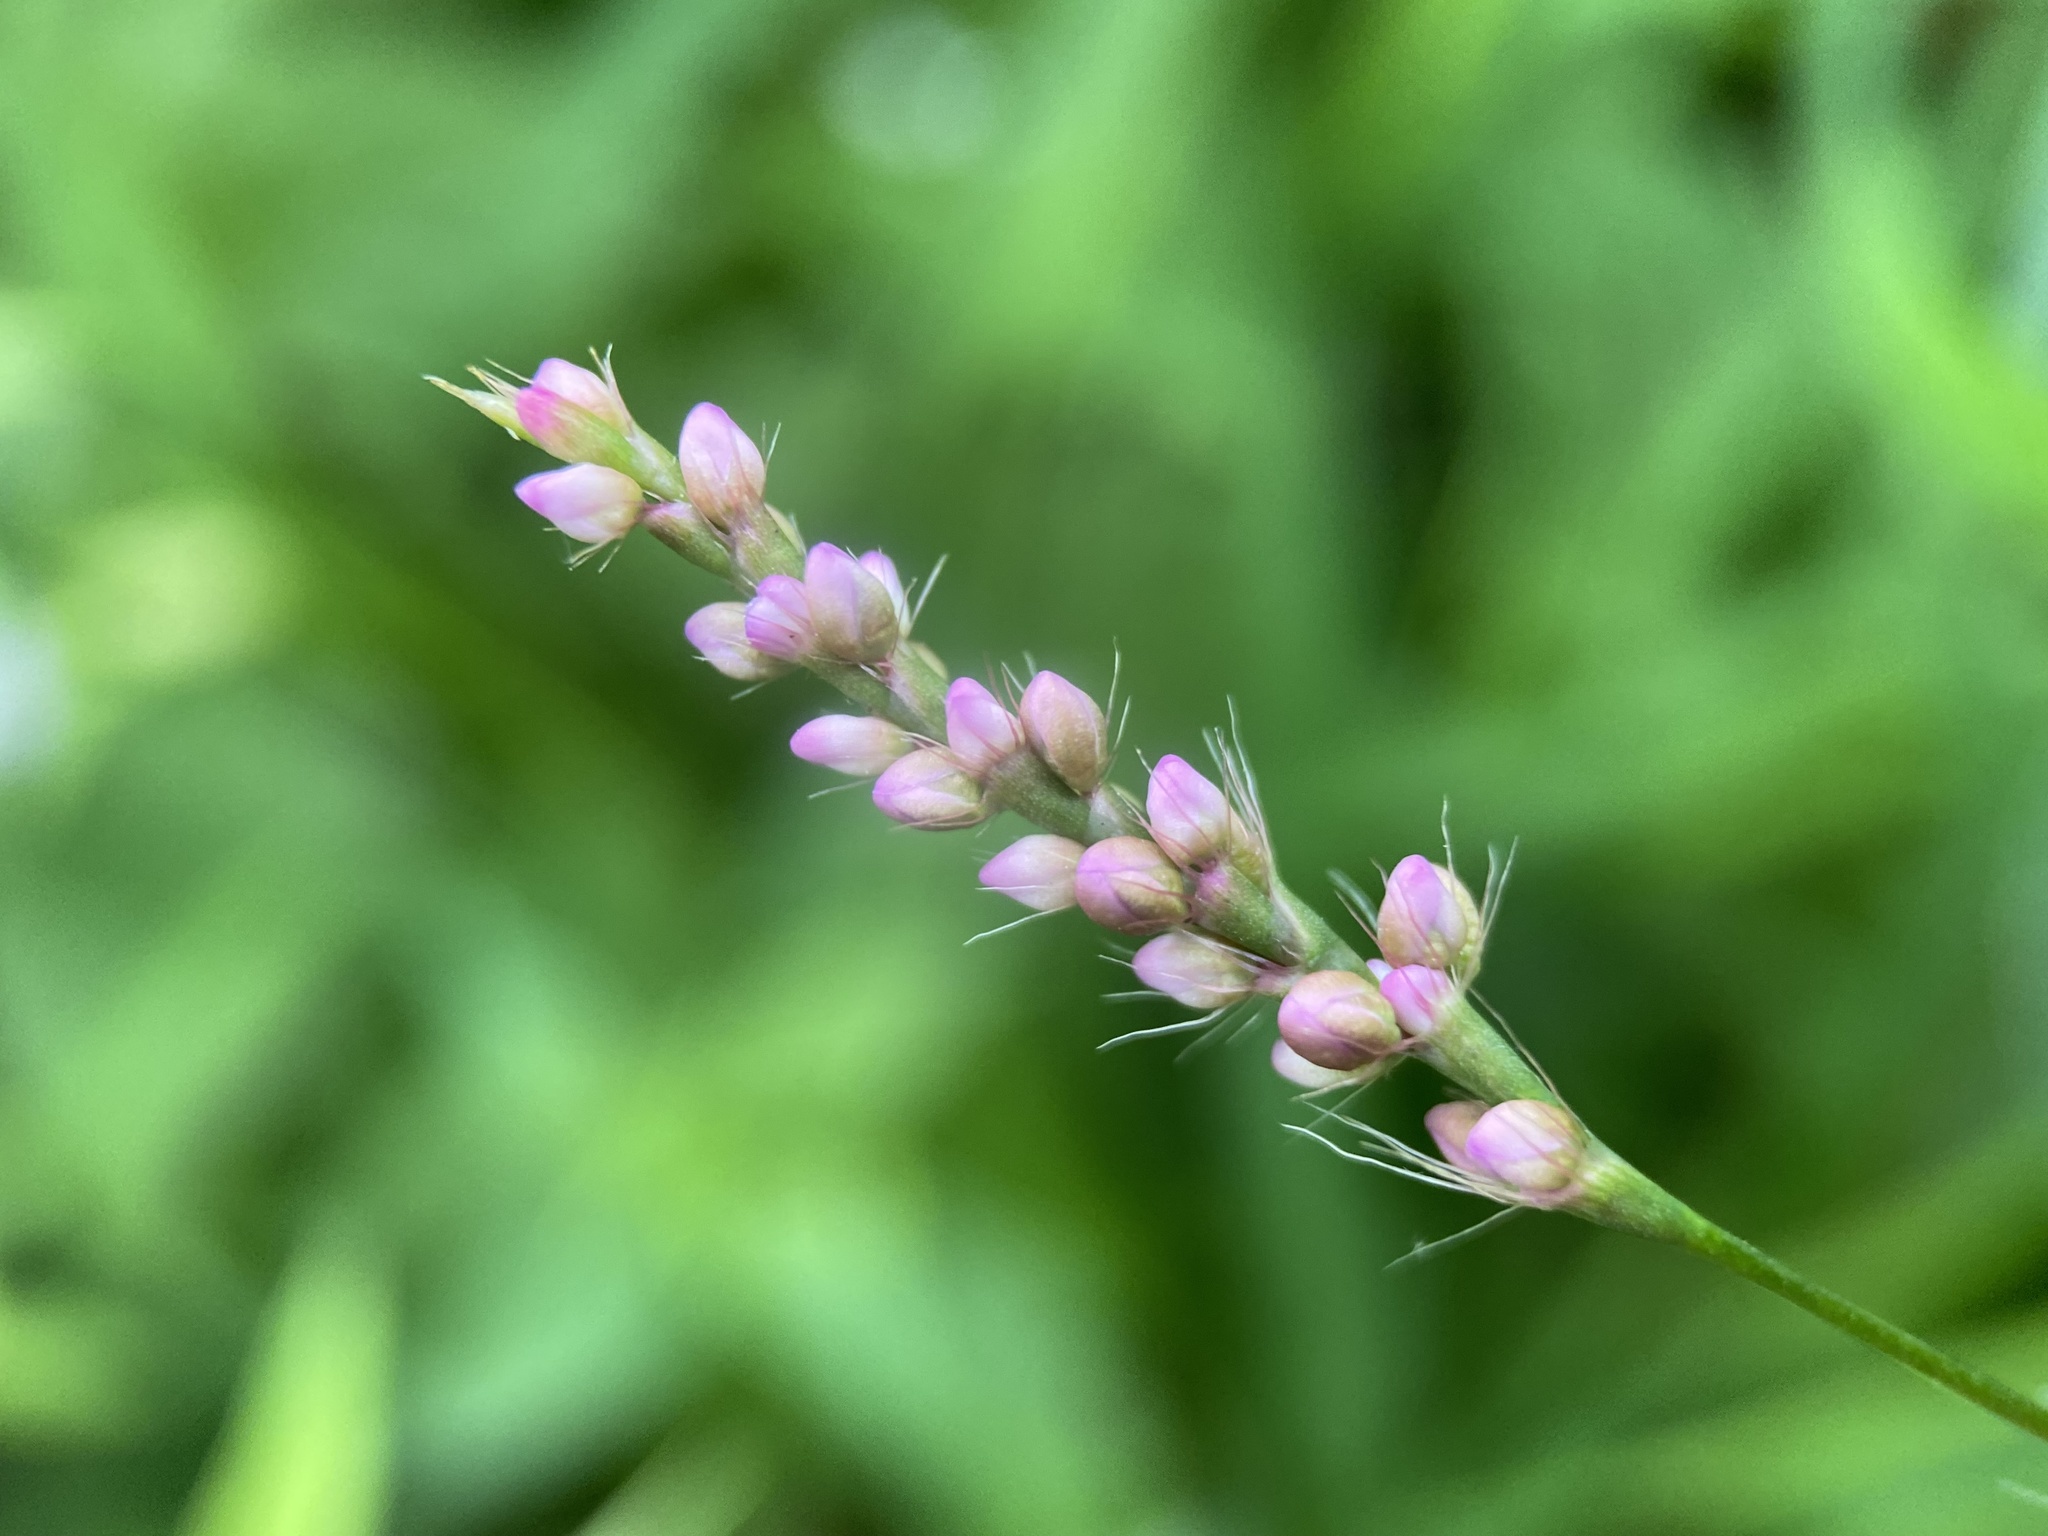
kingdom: Plantae
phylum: Tracheophyta
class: Magnoliopsida
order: Caryophyllales
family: Polygonaceae
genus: Persicaria
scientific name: Persicaria longiseta
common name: Bristly lady's-thumb
